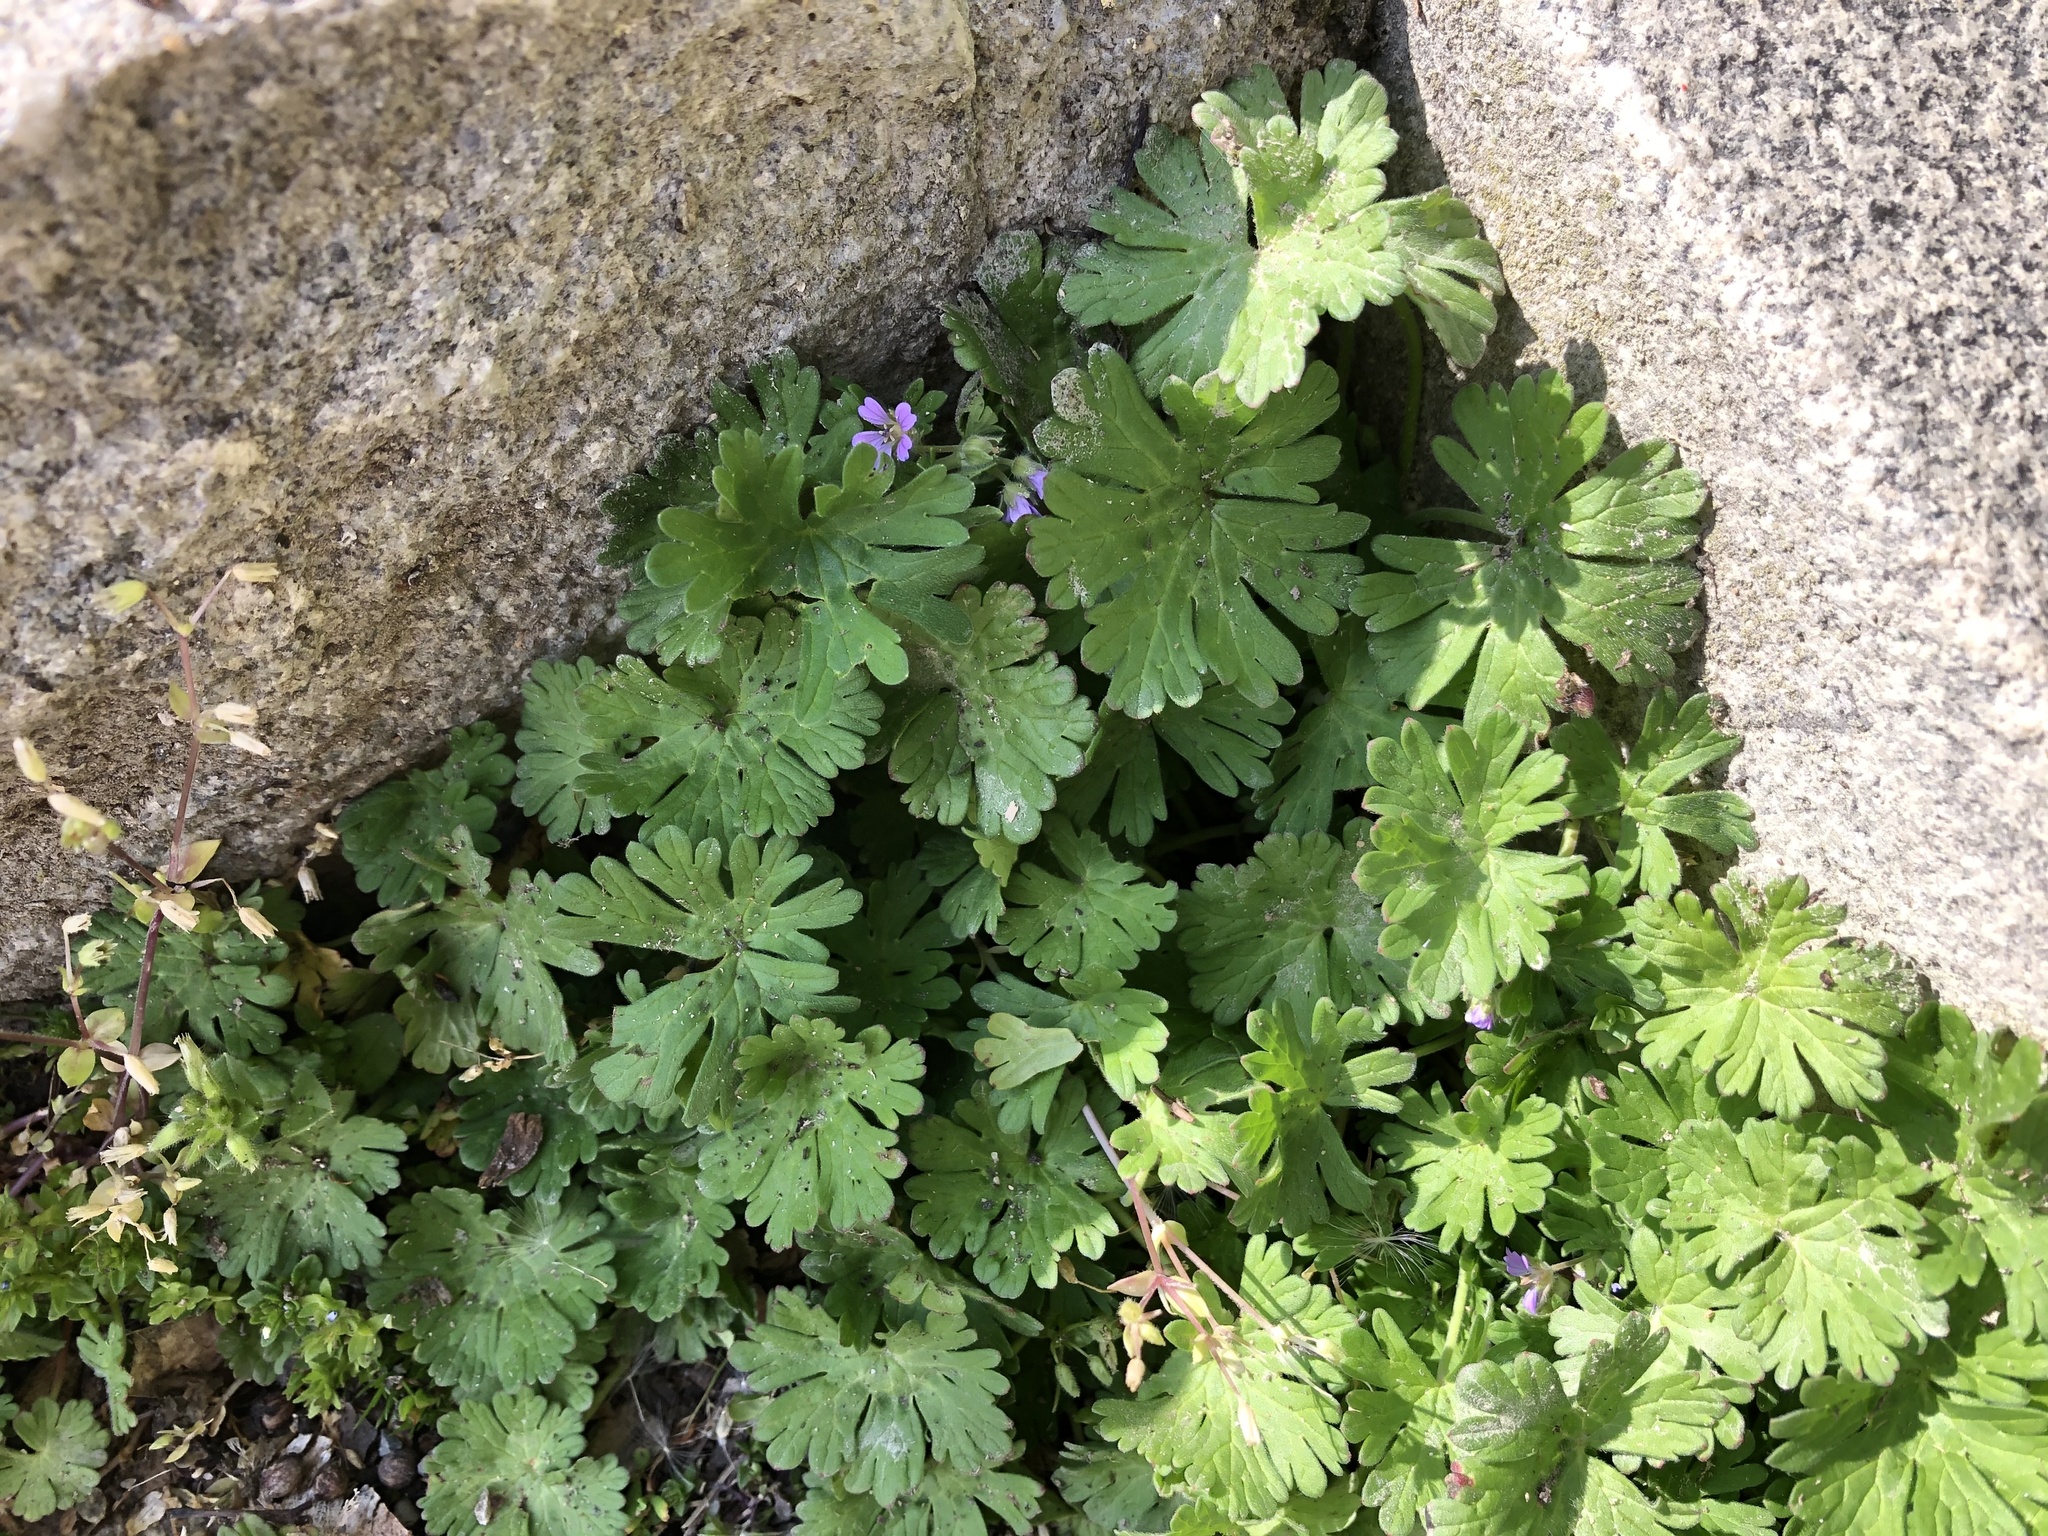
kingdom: Plantae
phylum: Tracheophyta
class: Magnoliopsida
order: Geraniales
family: Geraniaceae
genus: Geranium
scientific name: Geranium pusillum
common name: Small geranium
